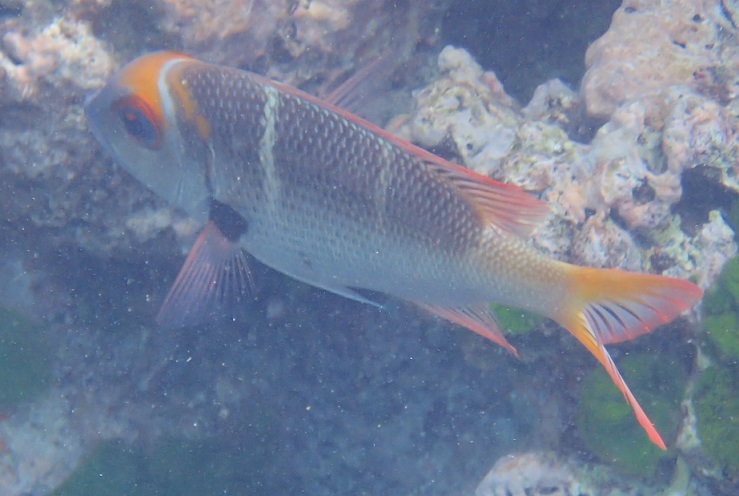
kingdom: Animalia
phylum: Chordata
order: Perciformes
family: Lethrinidae
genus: Monotaxis
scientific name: Monotaxis heterodon
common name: Redfin emperor
